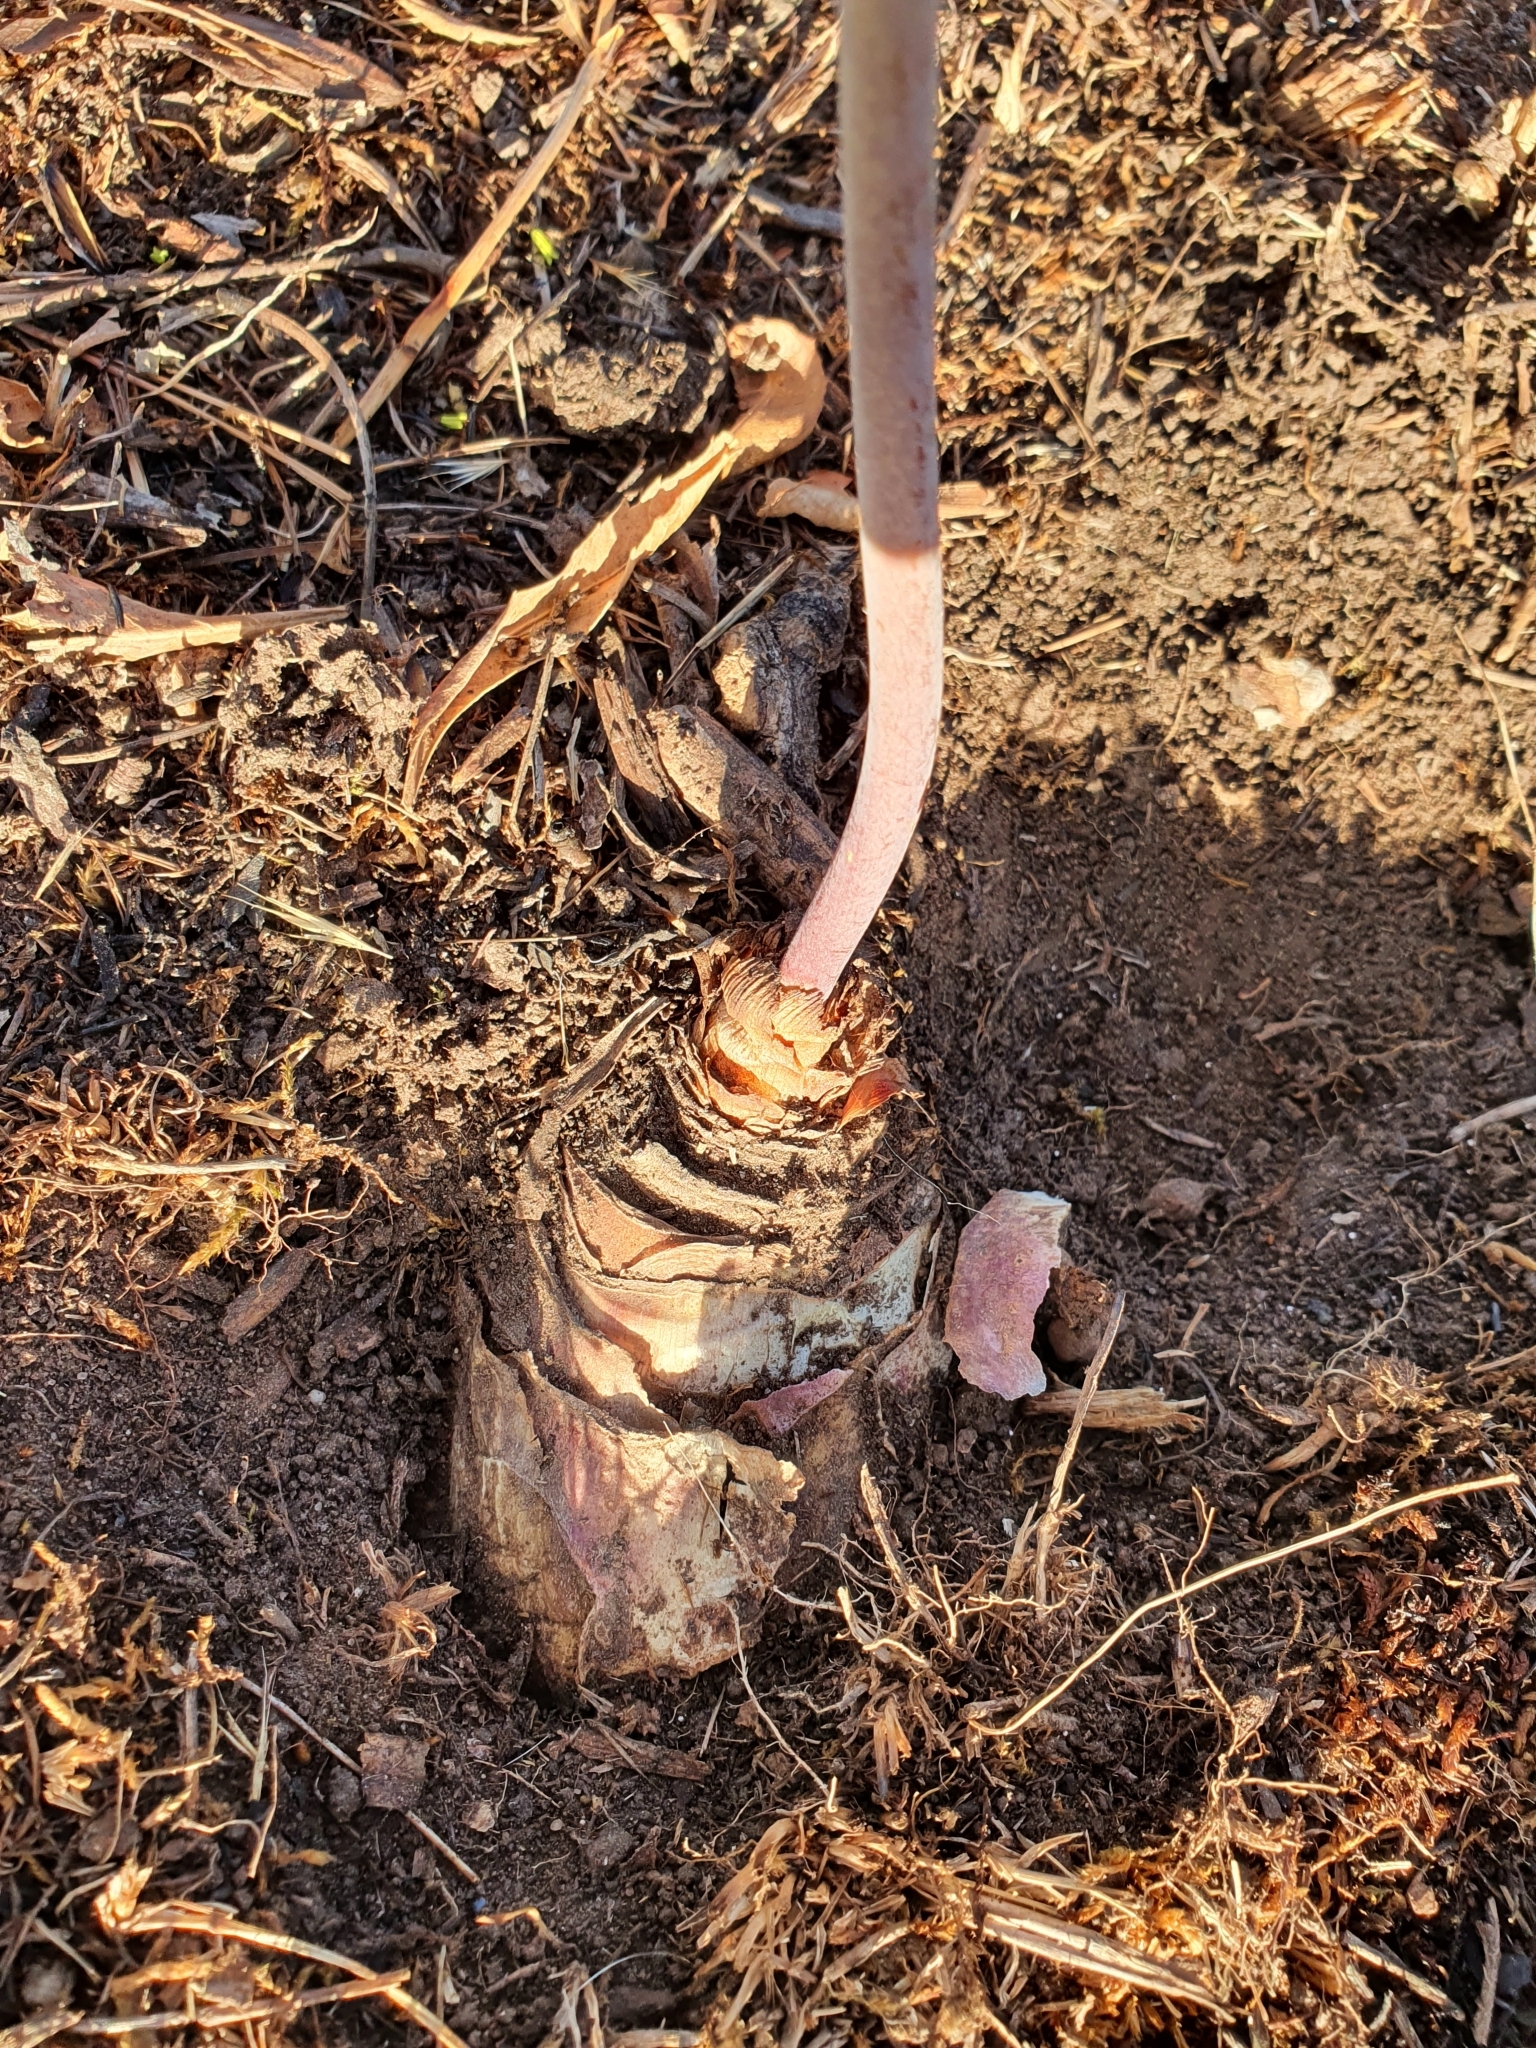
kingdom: Plantae
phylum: Tracheophyta
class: Liliopsida
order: Asparagales
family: Asparagaceae
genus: Drimia
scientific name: Drimia anthericoides
